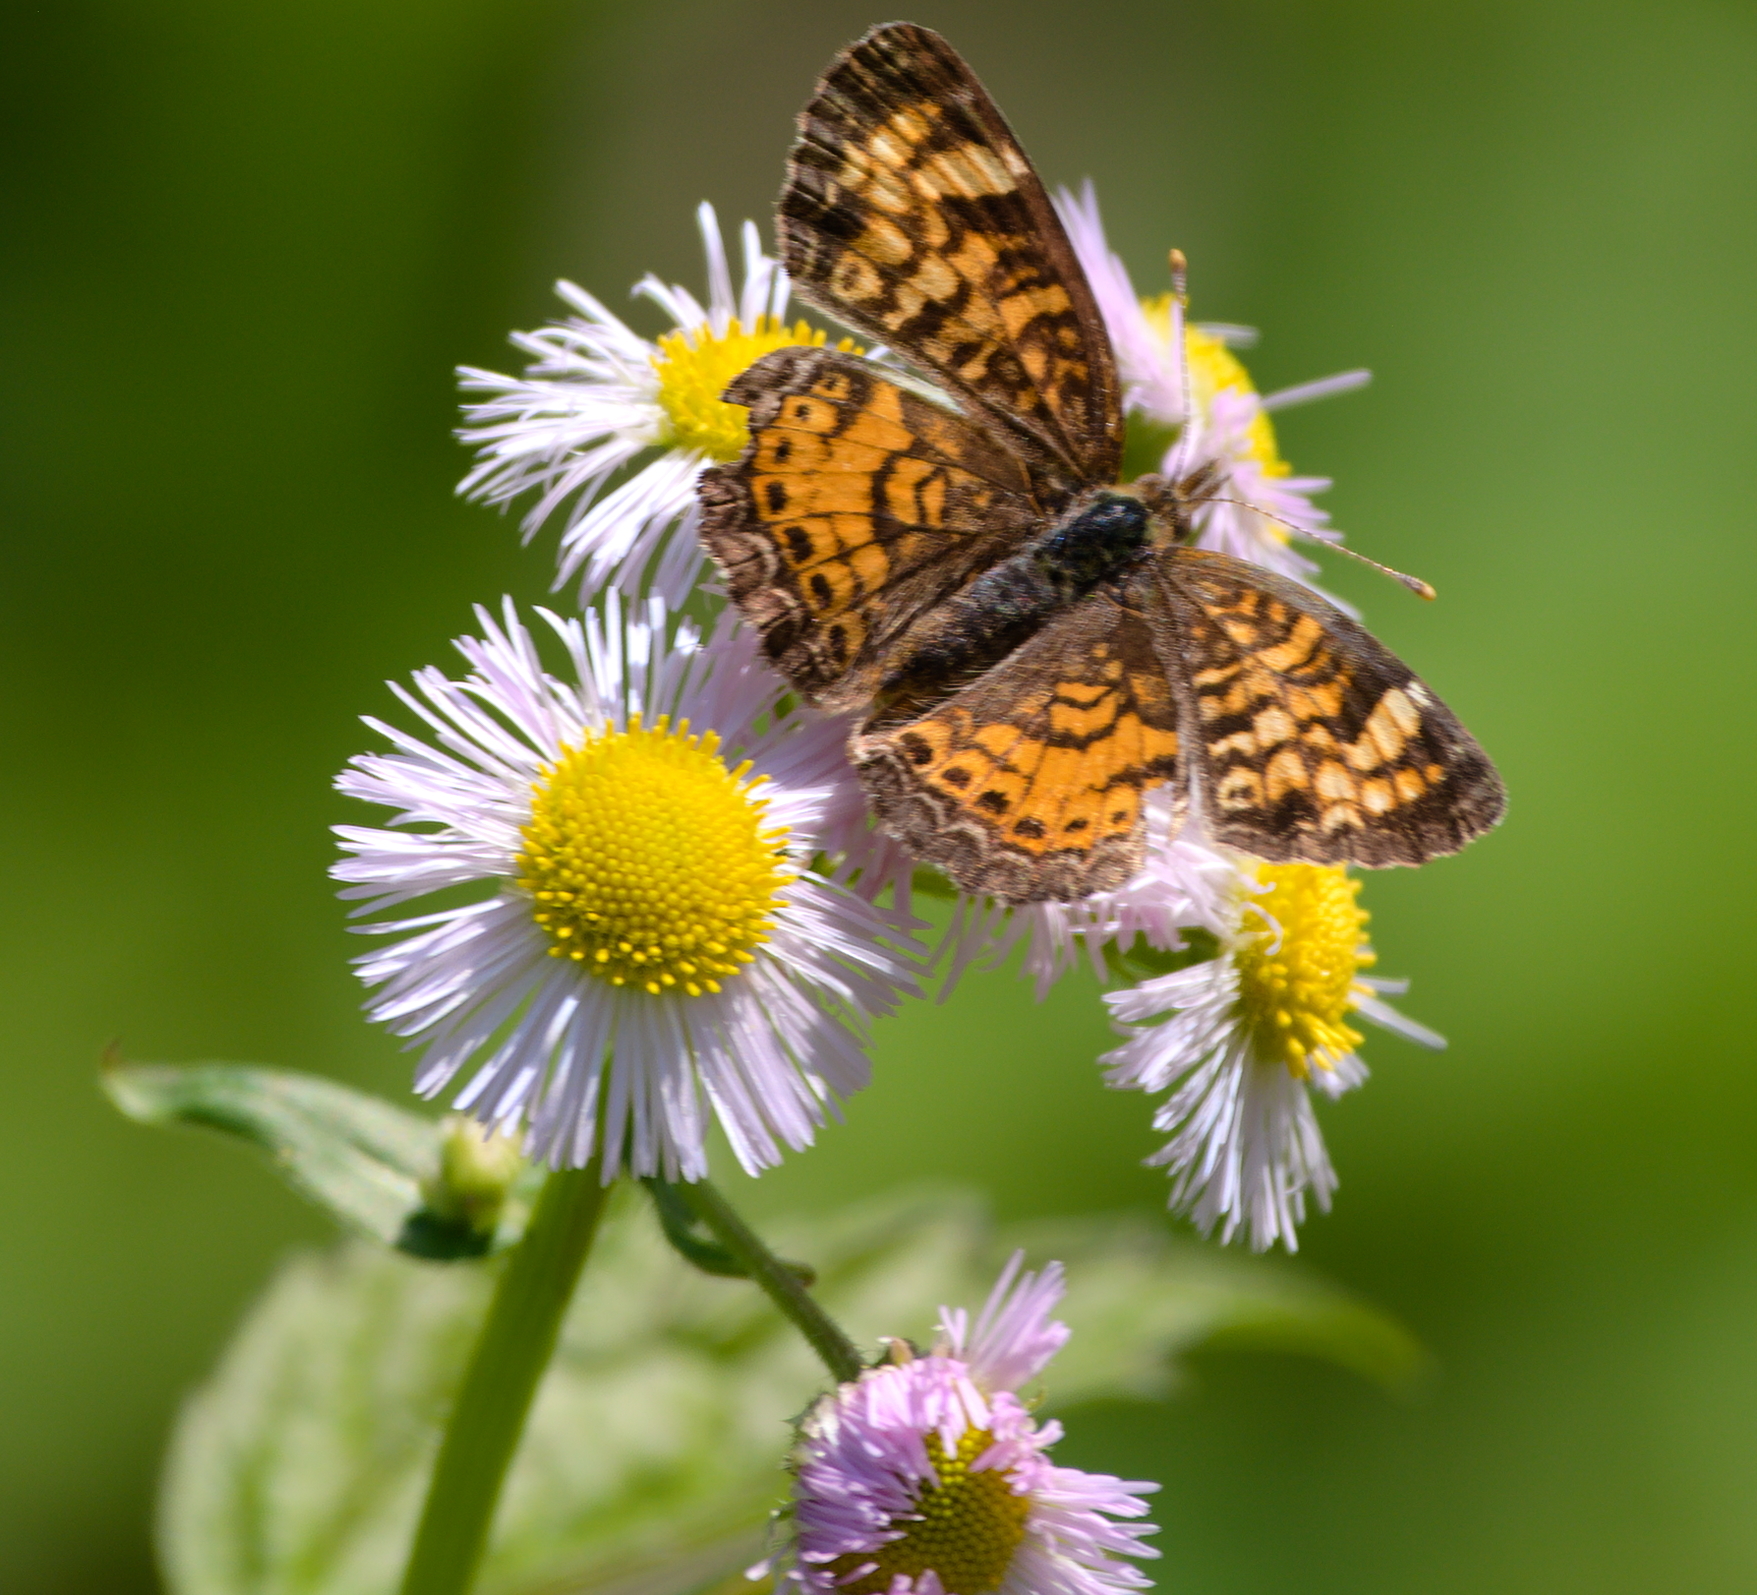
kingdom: Animalia
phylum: Arthropoda
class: Insecta
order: Lepidoptera
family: Nymphalidae
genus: Phyciodes
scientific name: Phyciodes tharos
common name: Pearl crescent
